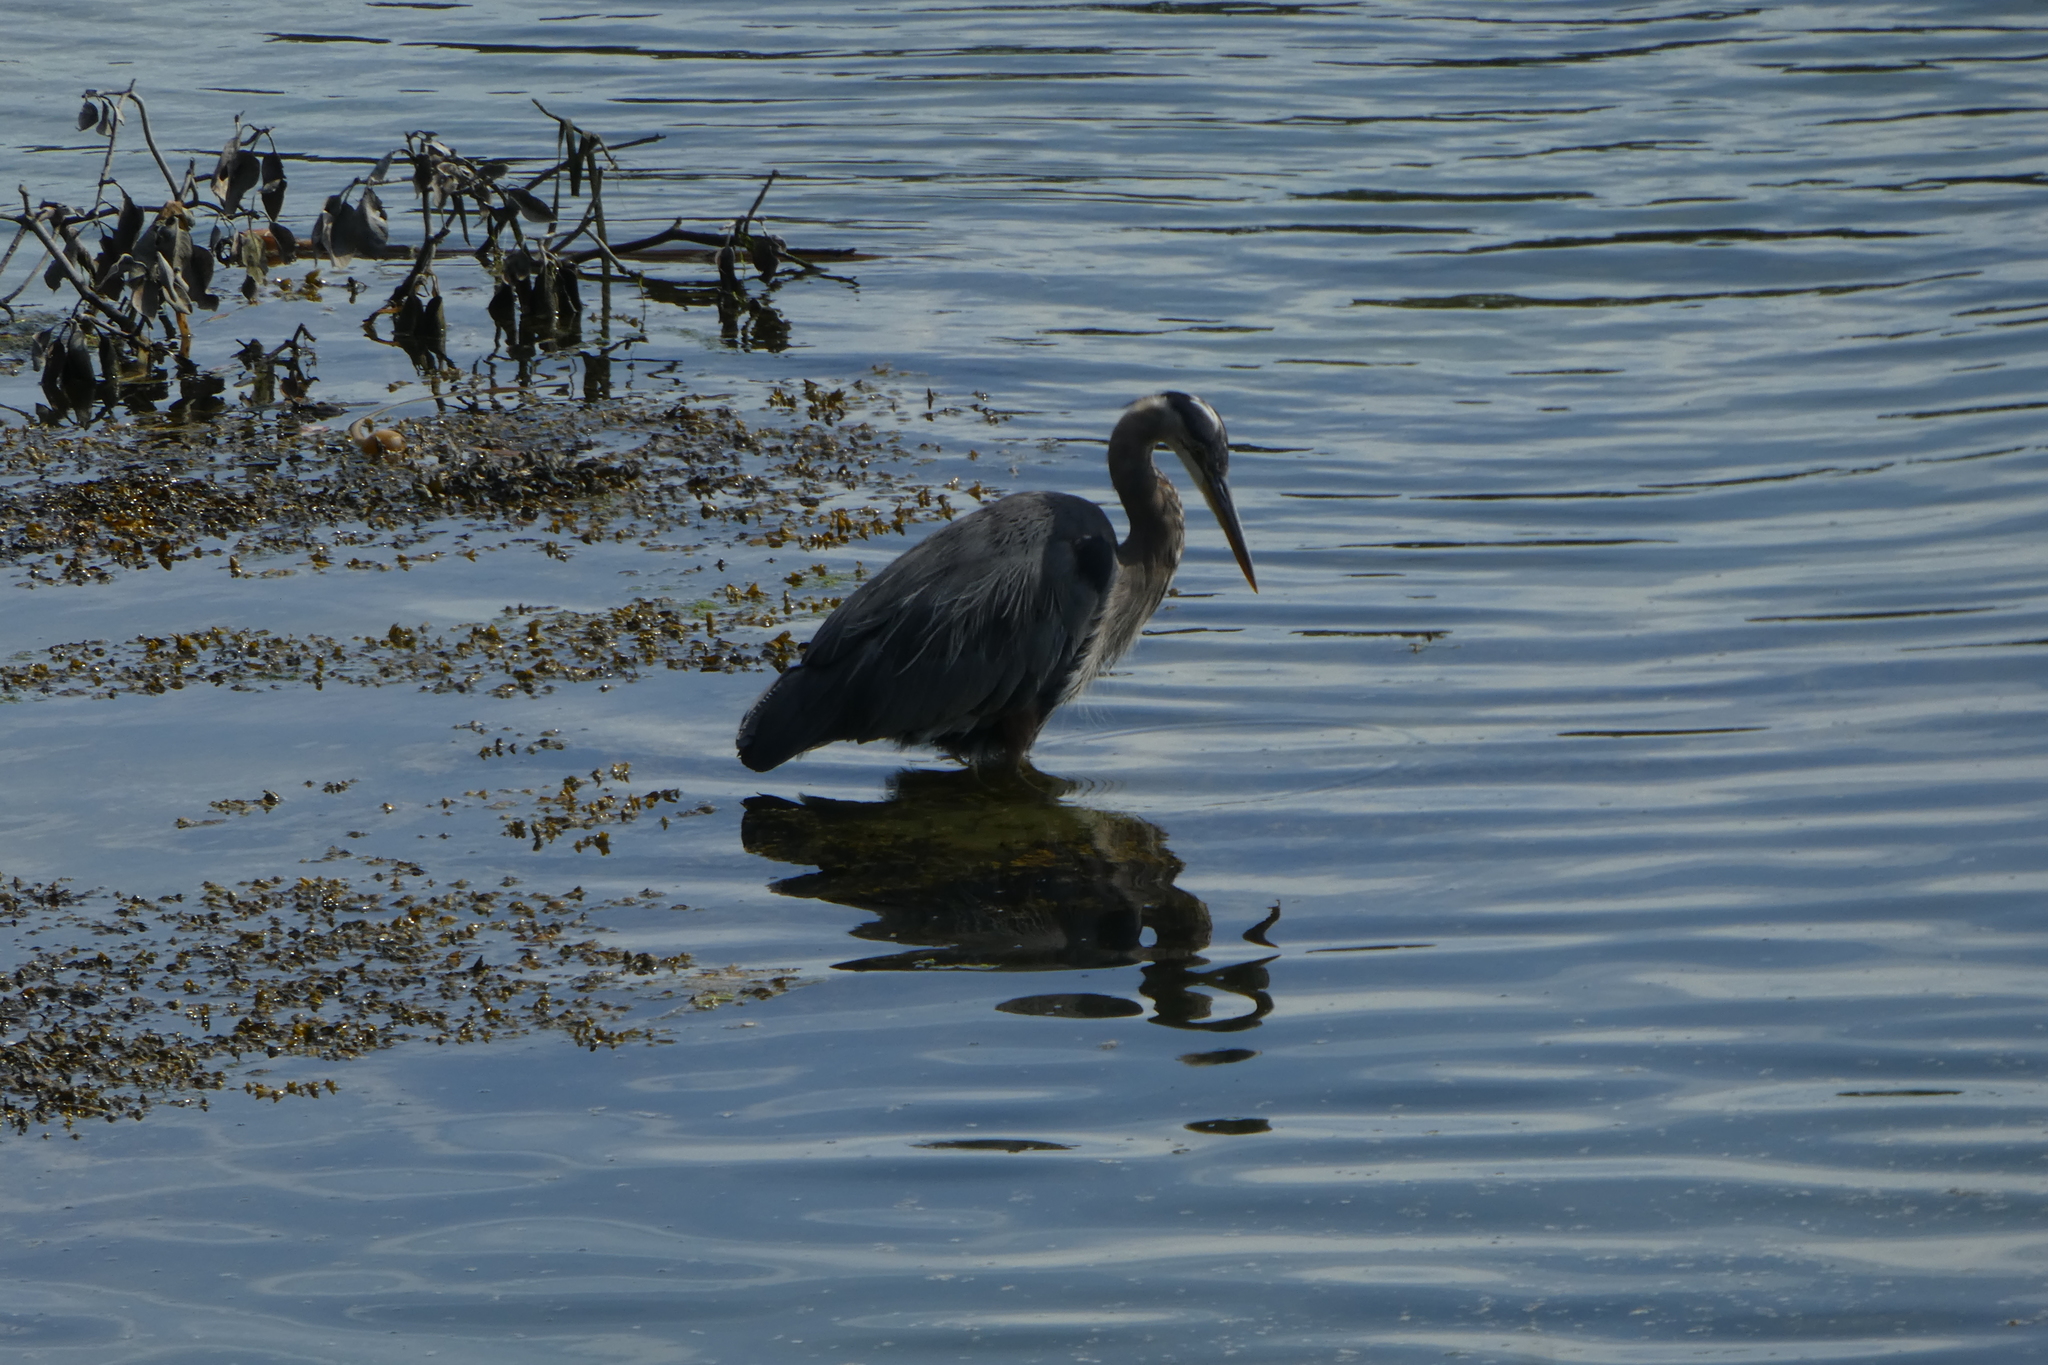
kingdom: Animalia
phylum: Chordata
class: Aves
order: Pelecaniformes
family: Ardeidae
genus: Ardea
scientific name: Ardea herodias
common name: Great blue heron
